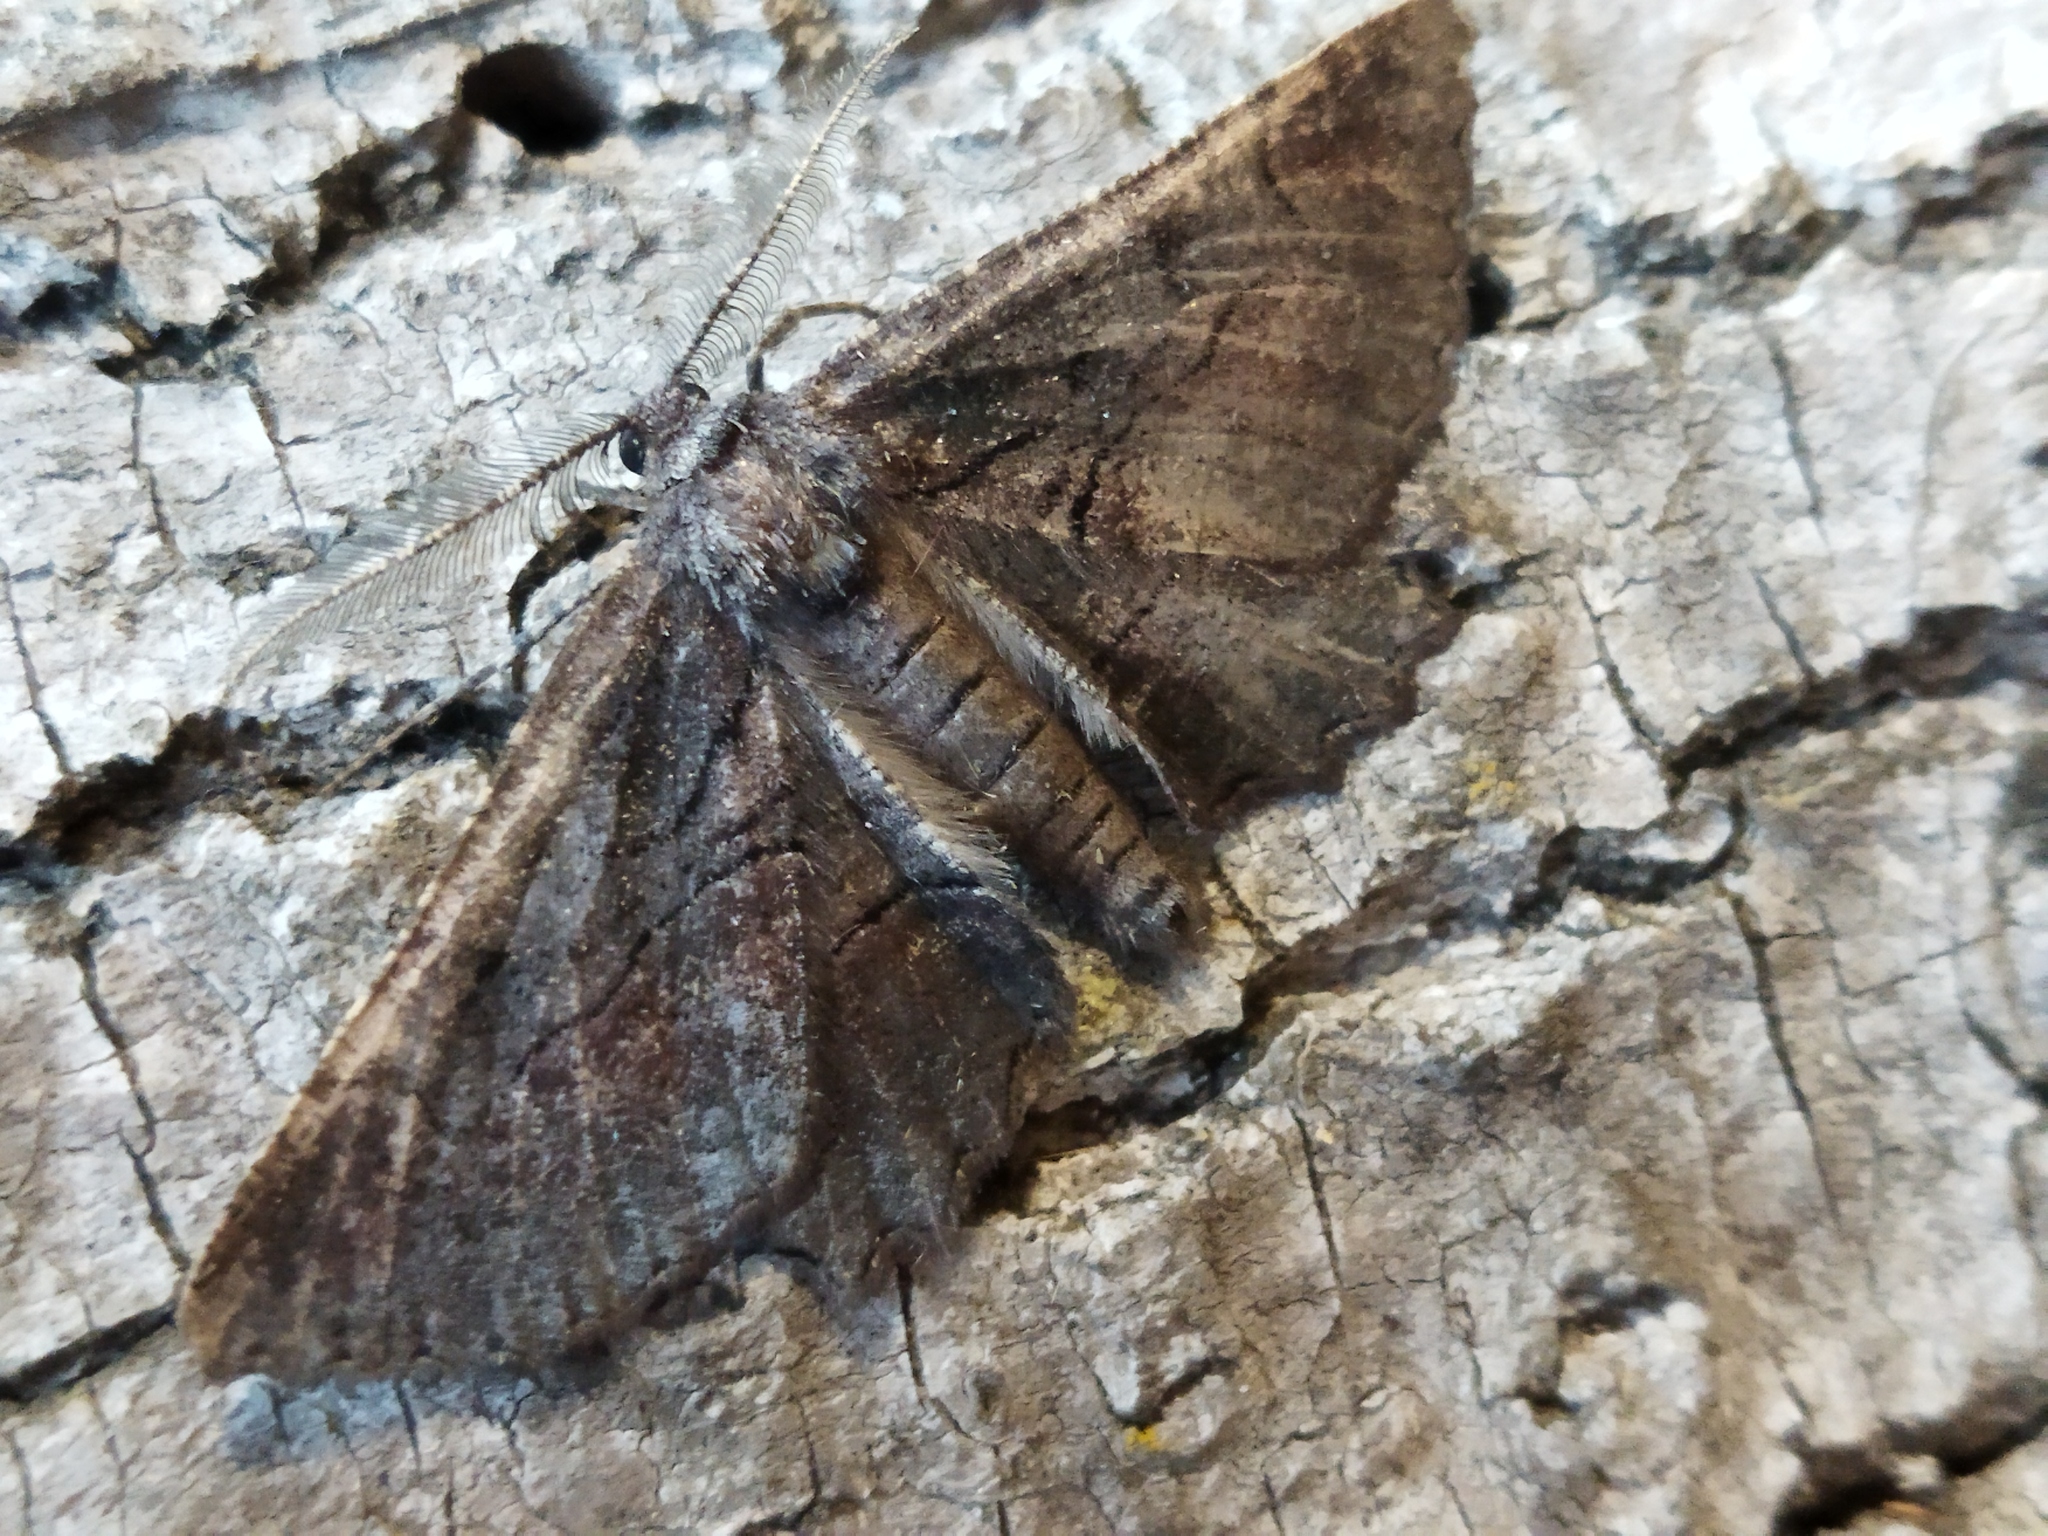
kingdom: Animalia
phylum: Arthropoda
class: Insecta
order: Lepidoptera
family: Geometridae
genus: Nychiodes
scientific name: Nychiodes waltheri
